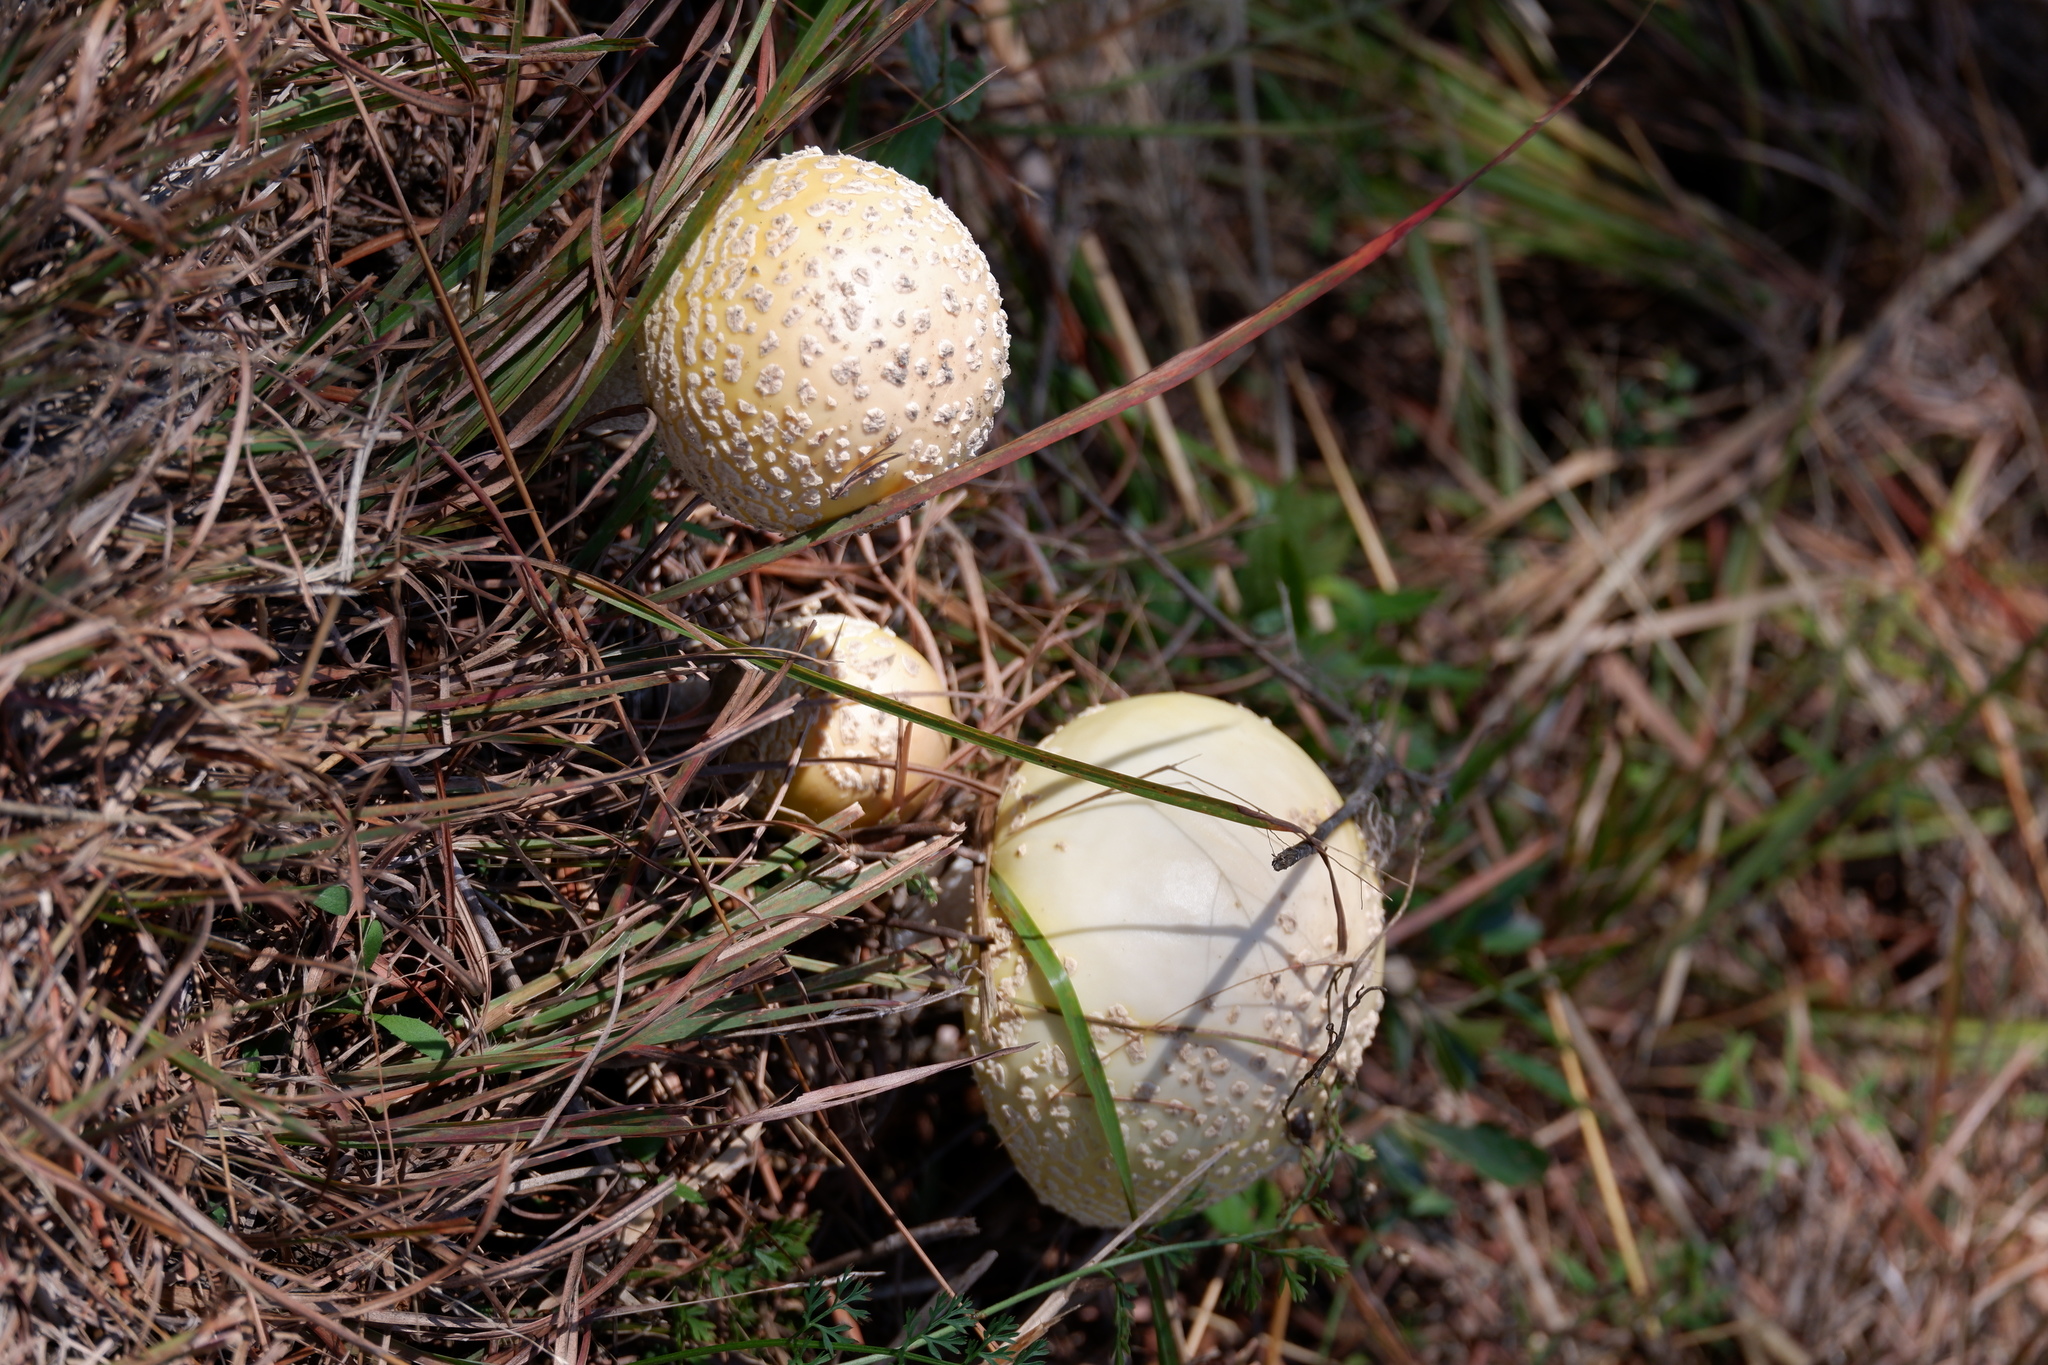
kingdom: Fungi
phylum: Basidiomycota
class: Agaricomycetes
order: Agaricales
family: Amanitaceae
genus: Amanita
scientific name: Amanita muscaria
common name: Fly agaric
